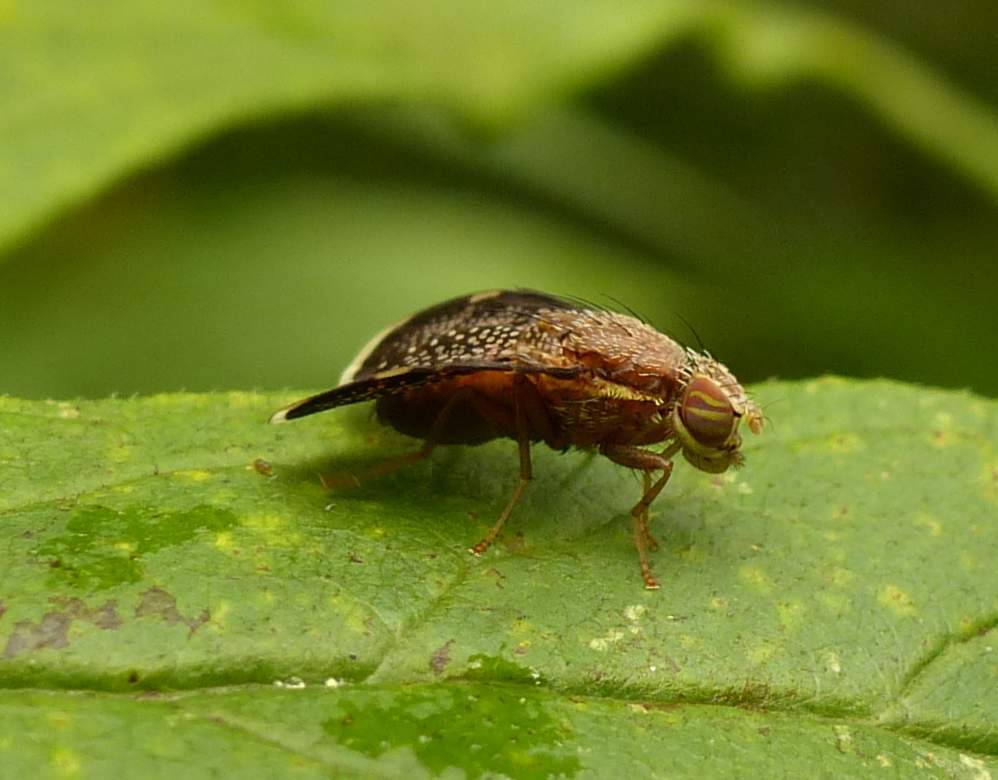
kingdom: Animalia
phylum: Arthropoda
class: Insecta
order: Diptera
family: Tephritidae
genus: Eutreta
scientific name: Eutreta novaeboracensis
